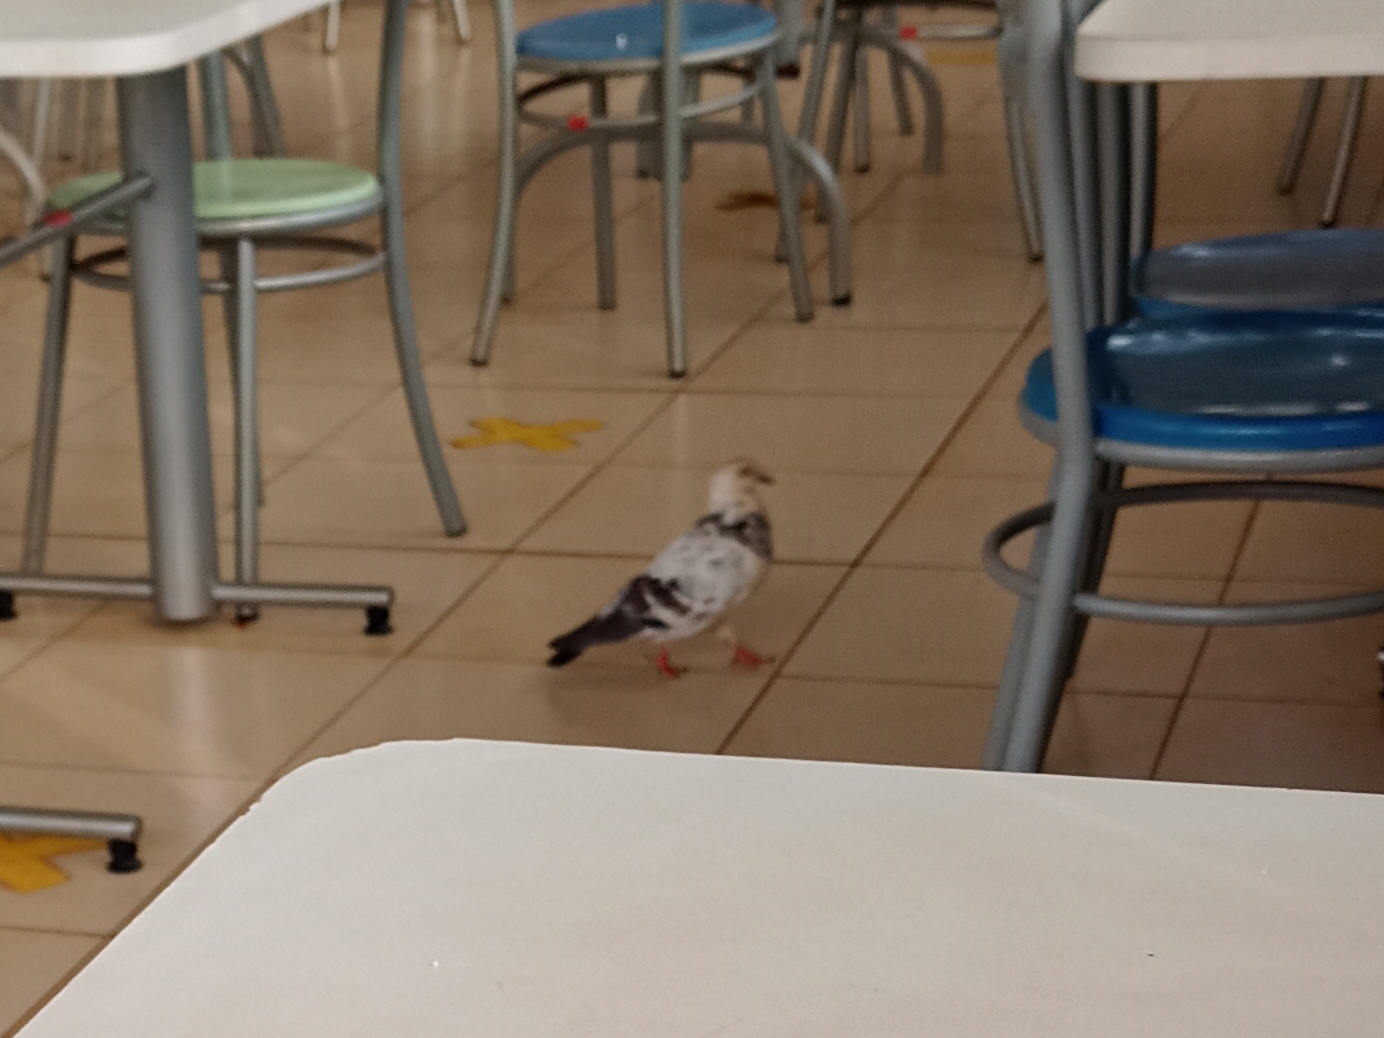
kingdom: Animalia
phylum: Chordata
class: Aves
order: Columbiformes
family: Columbidae
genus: Columba
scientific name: Columba livia
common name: Rock pigeon
